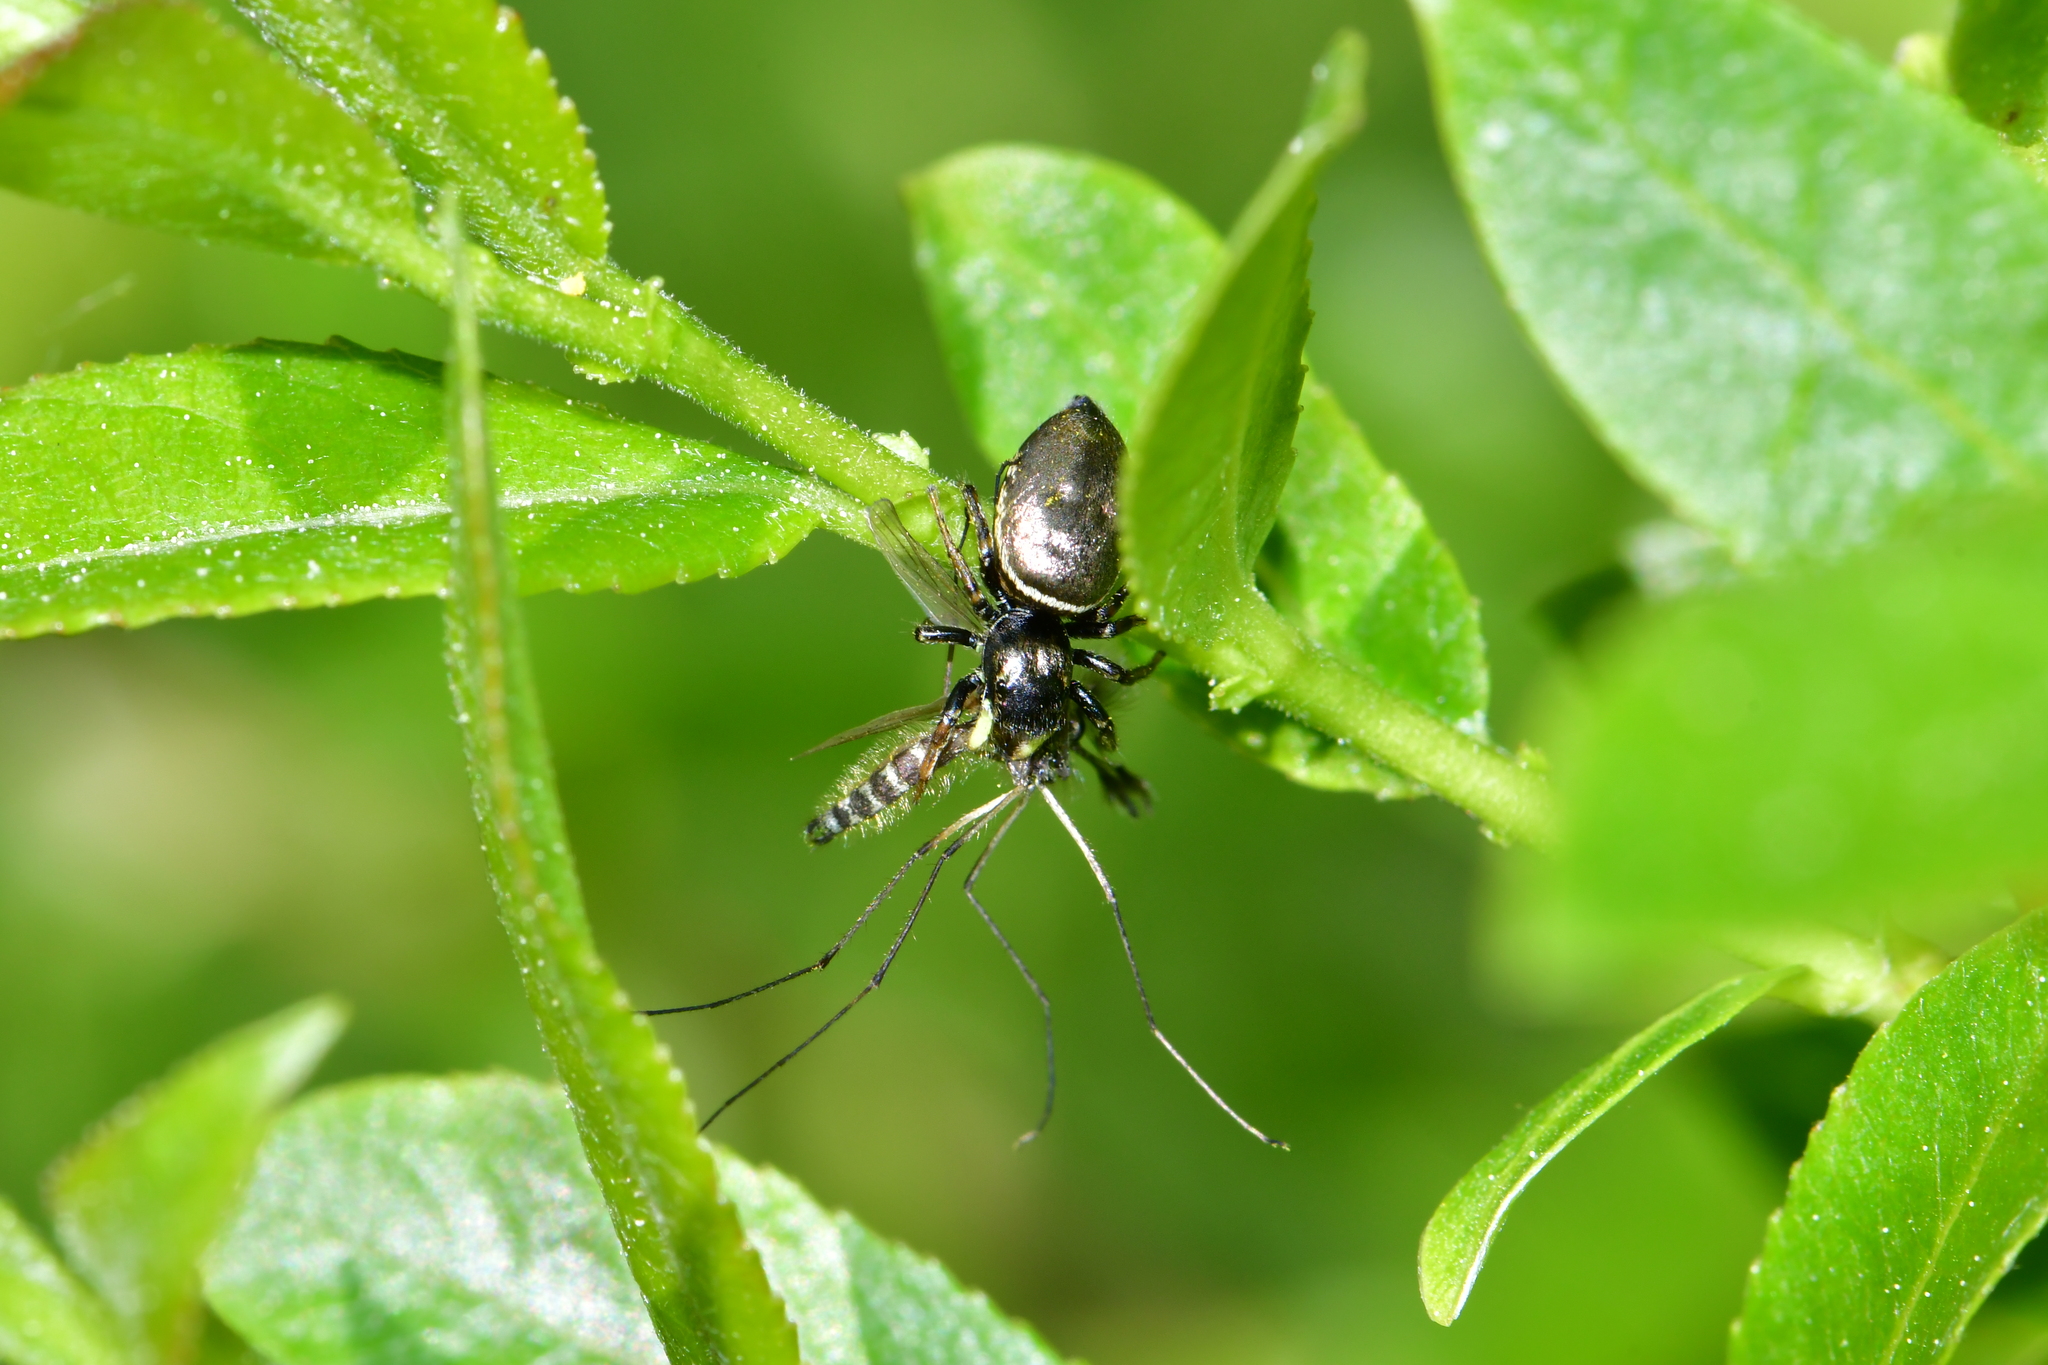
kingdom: Animalia
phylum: Arthropoda
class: Arachnida
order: Araneae
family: Salticidae
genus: Heliophanus
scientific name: Heliophanus auratus
